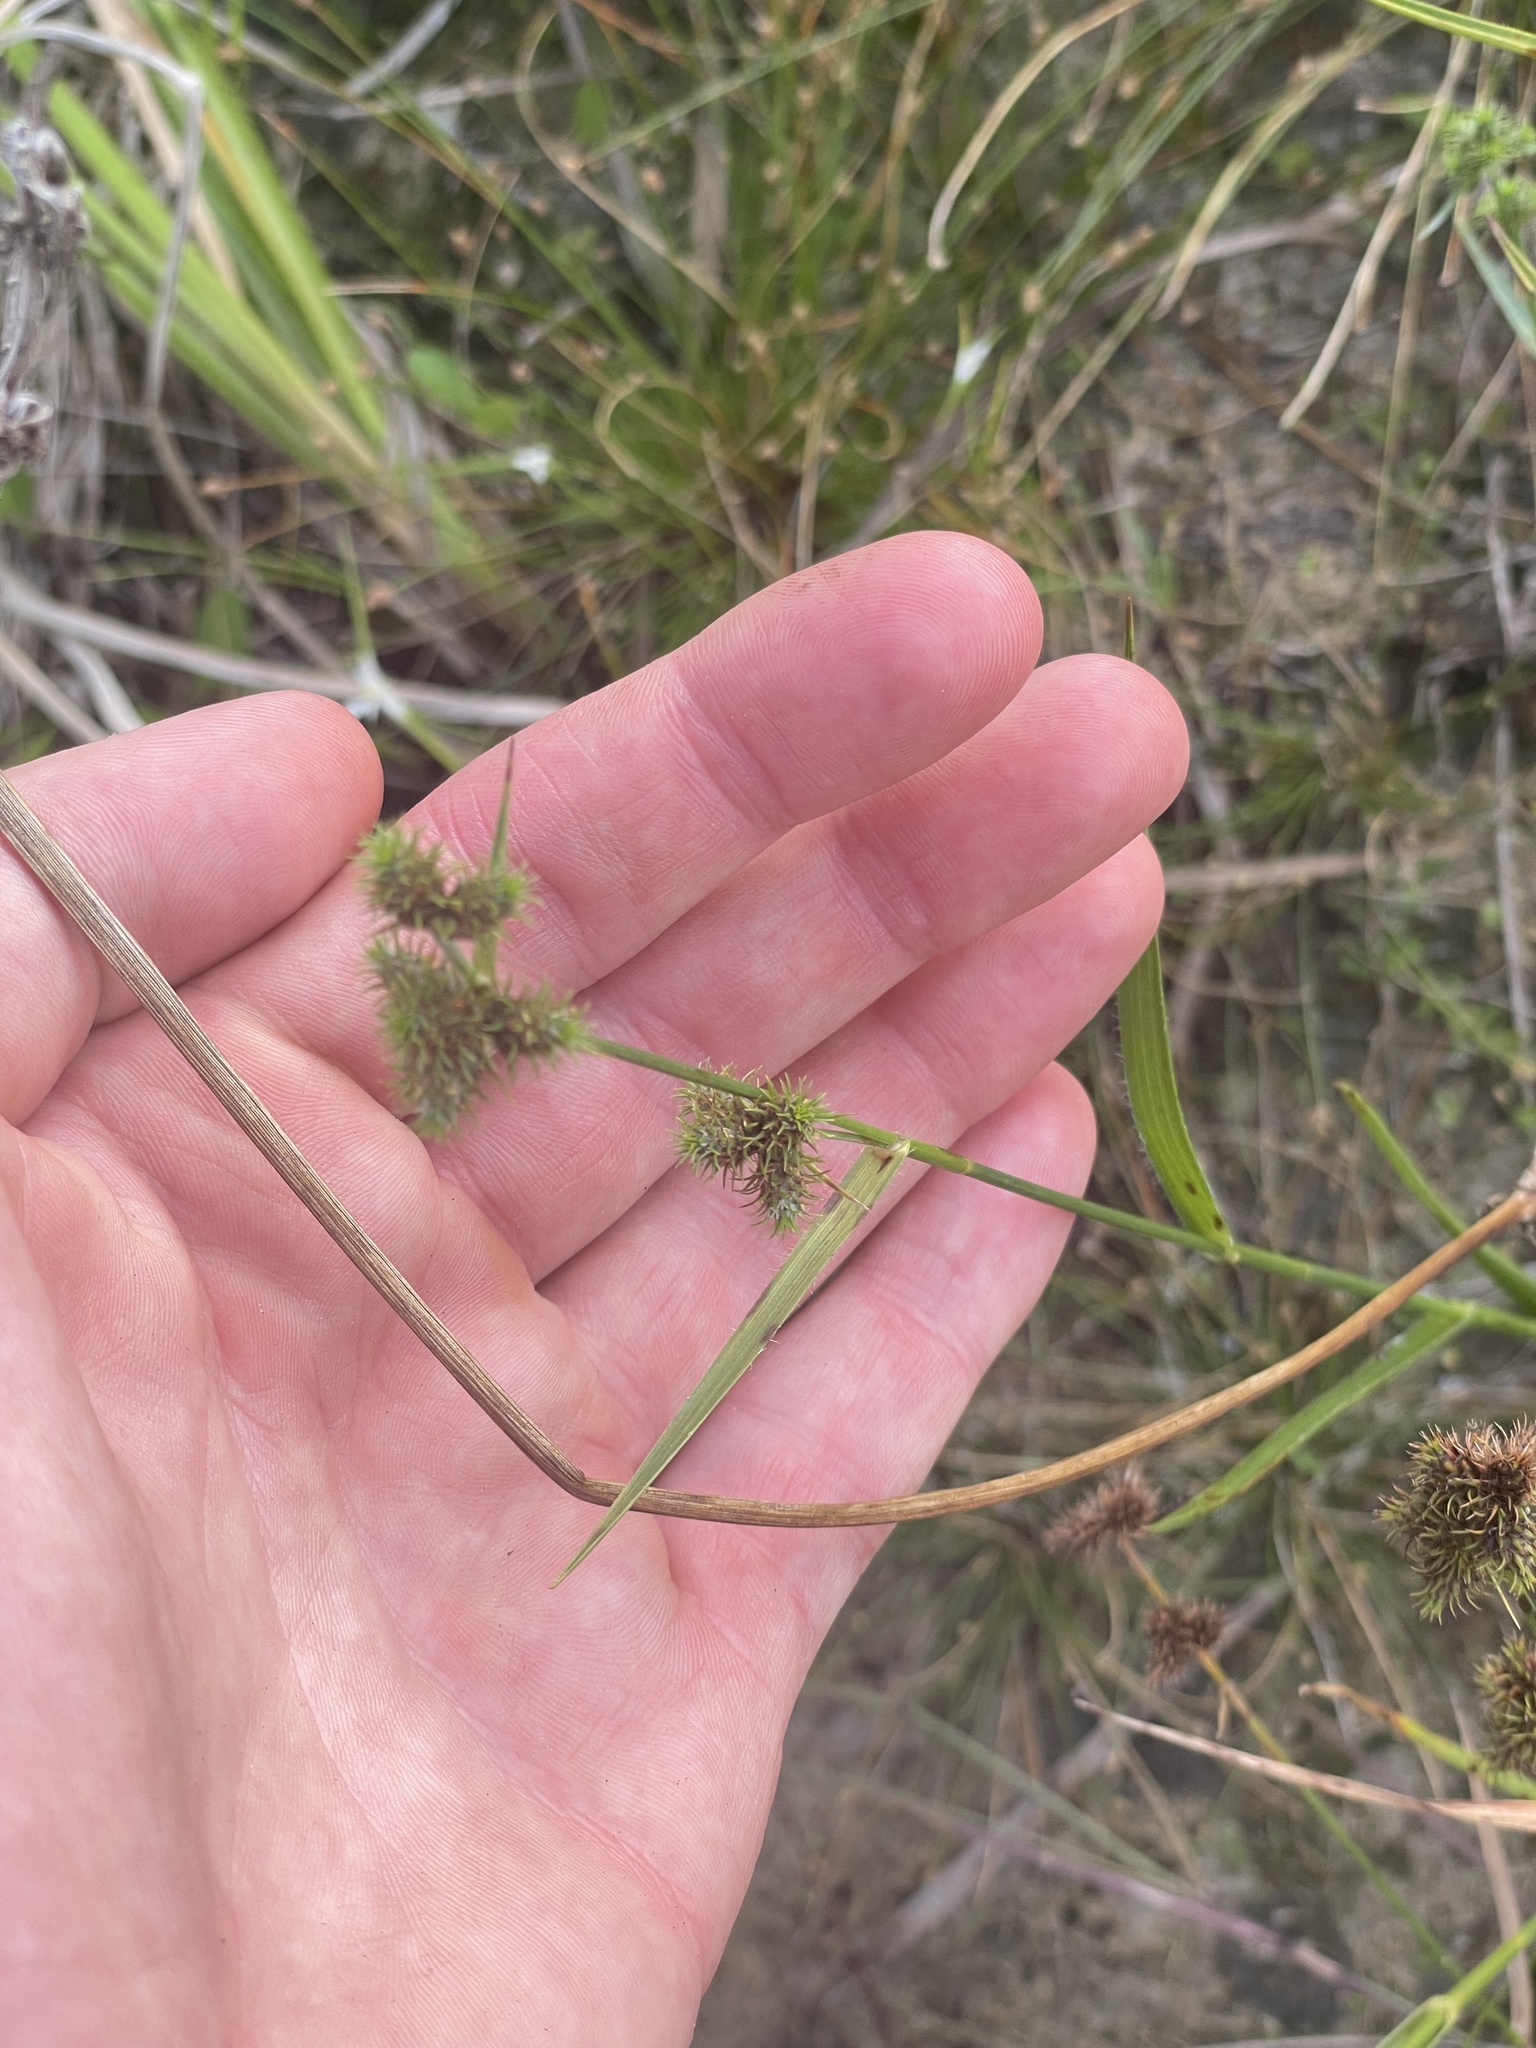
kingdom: Plantae
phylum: Tracheophyta
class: Liliopsida
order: Poales
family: Cyperaceae
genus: Fuirena
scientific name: Fuirena breviseta
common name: Saltmarsh umbrella sedge
